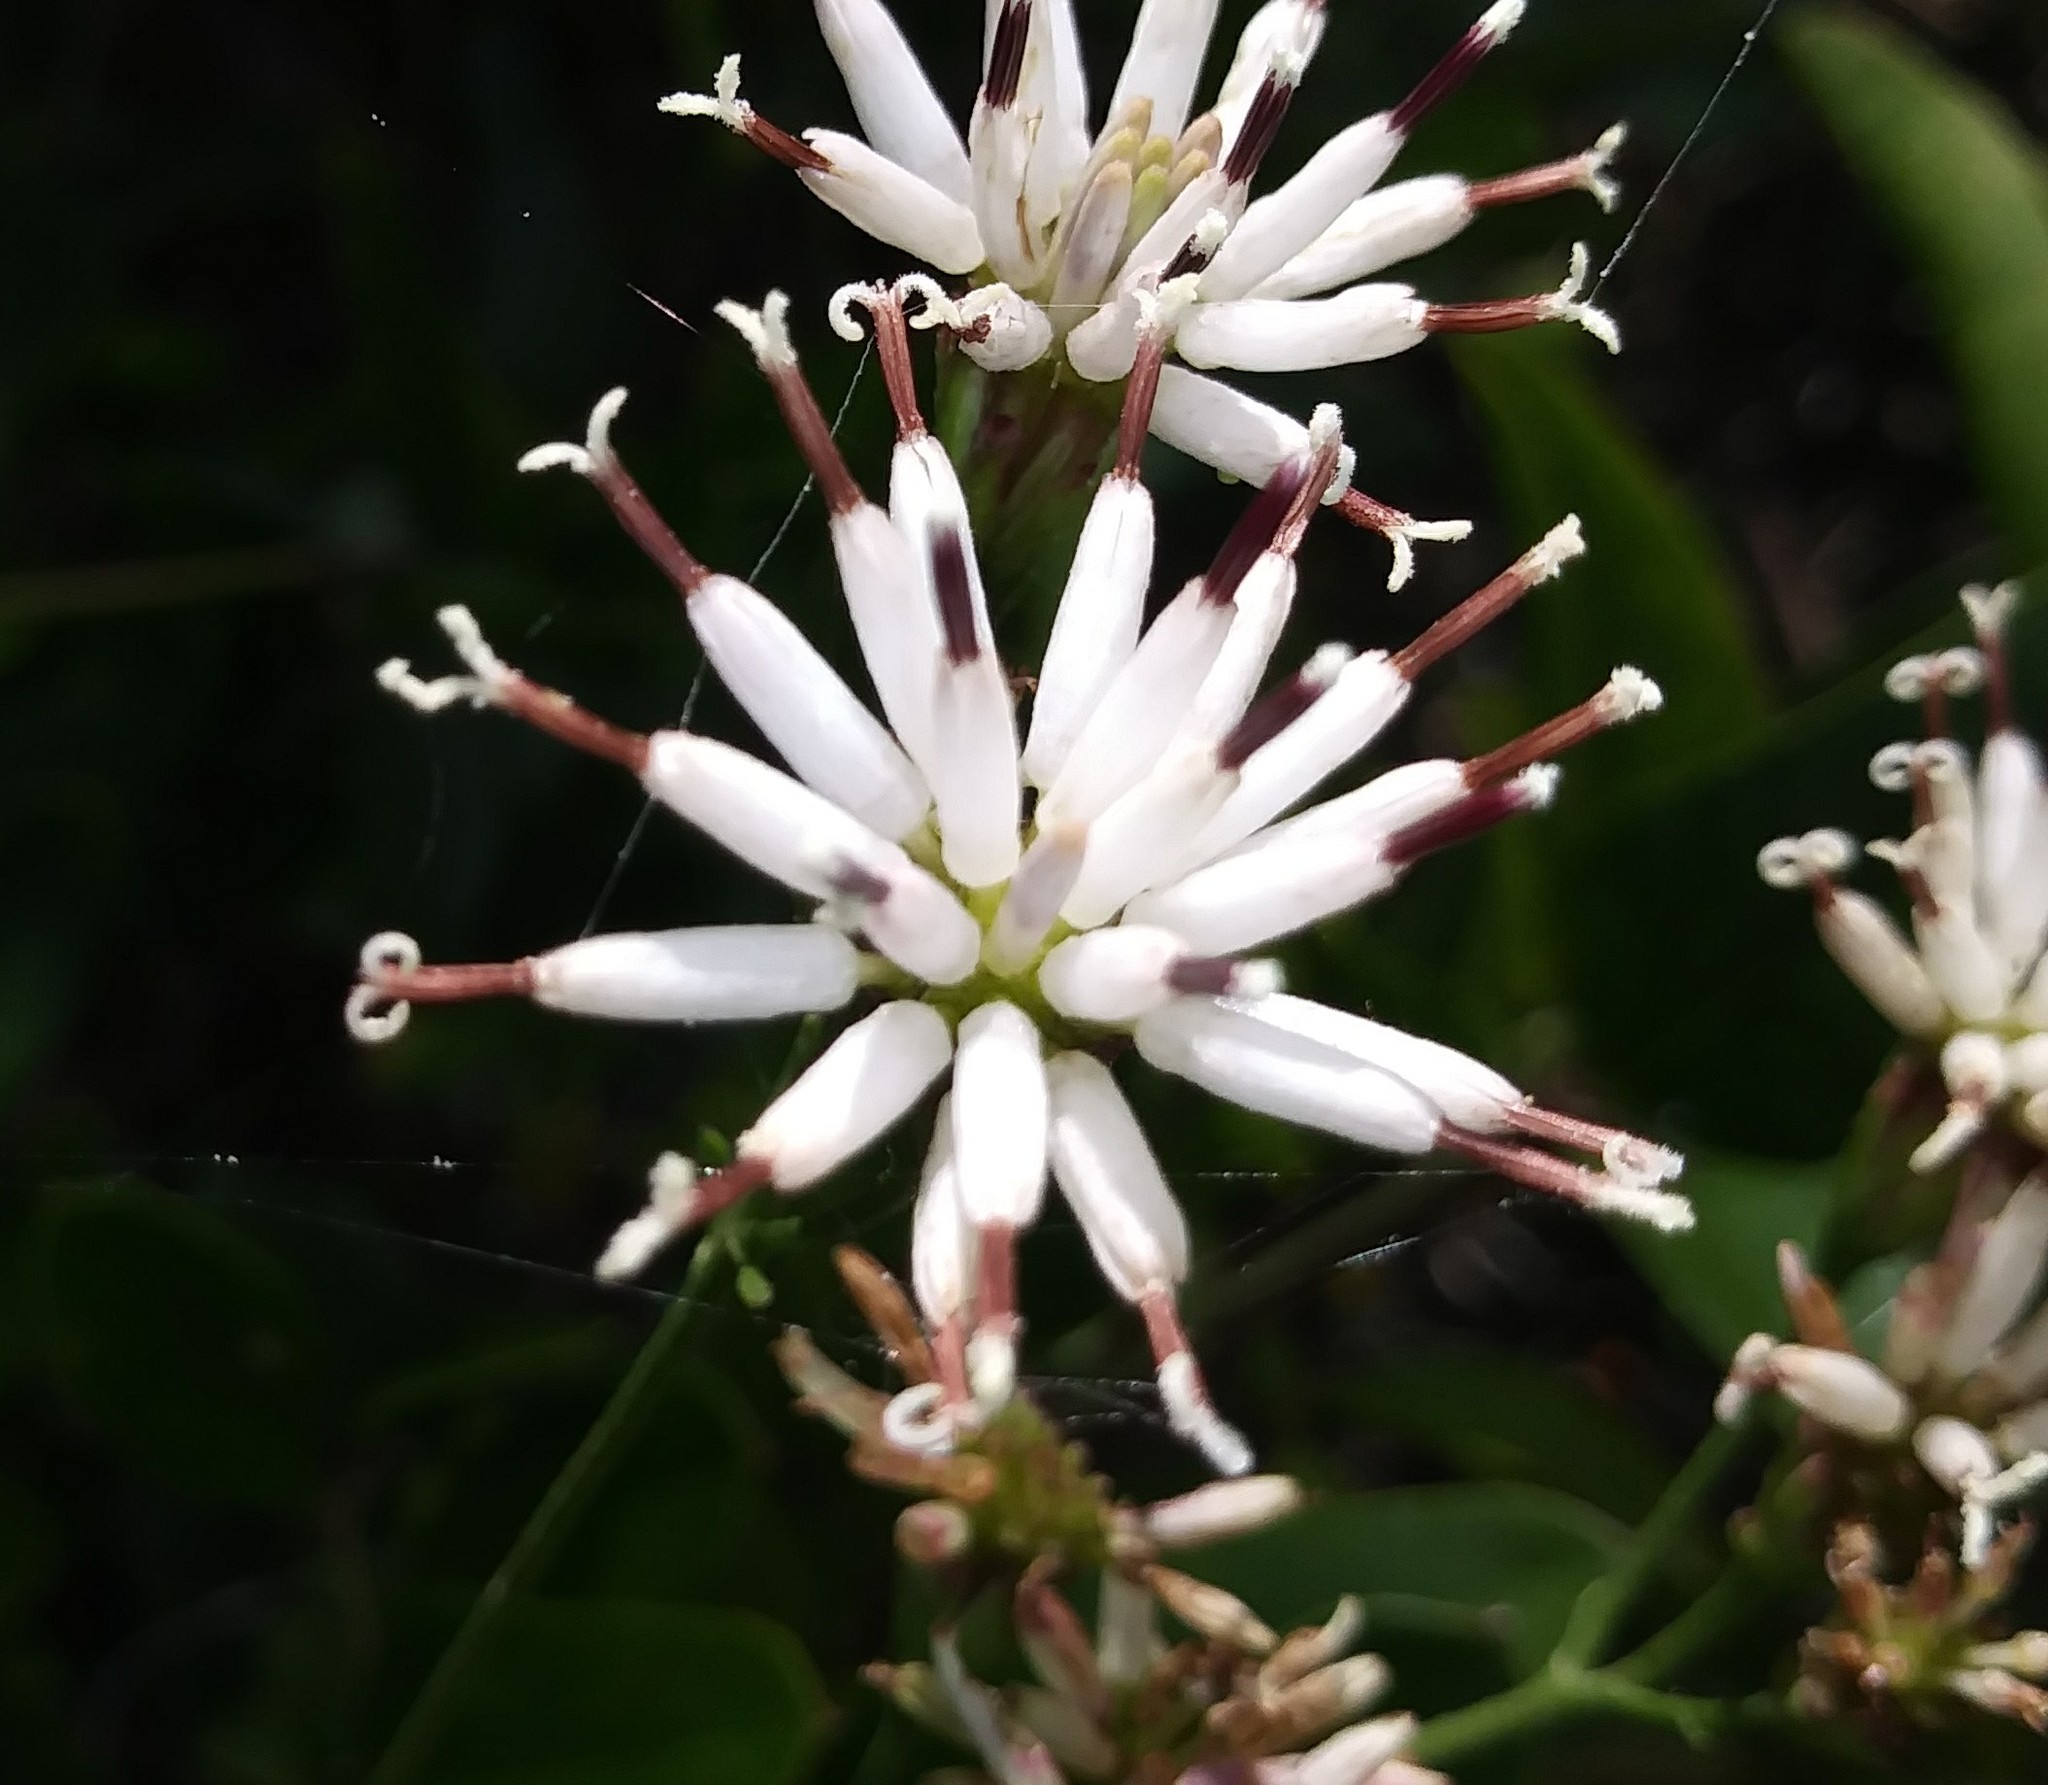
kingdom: Plantae
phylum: Tracheophyta
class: Magnoliopsida
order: Asterales
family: Asteraceae
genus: Palafoxia
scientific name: Palafoxia feayi
